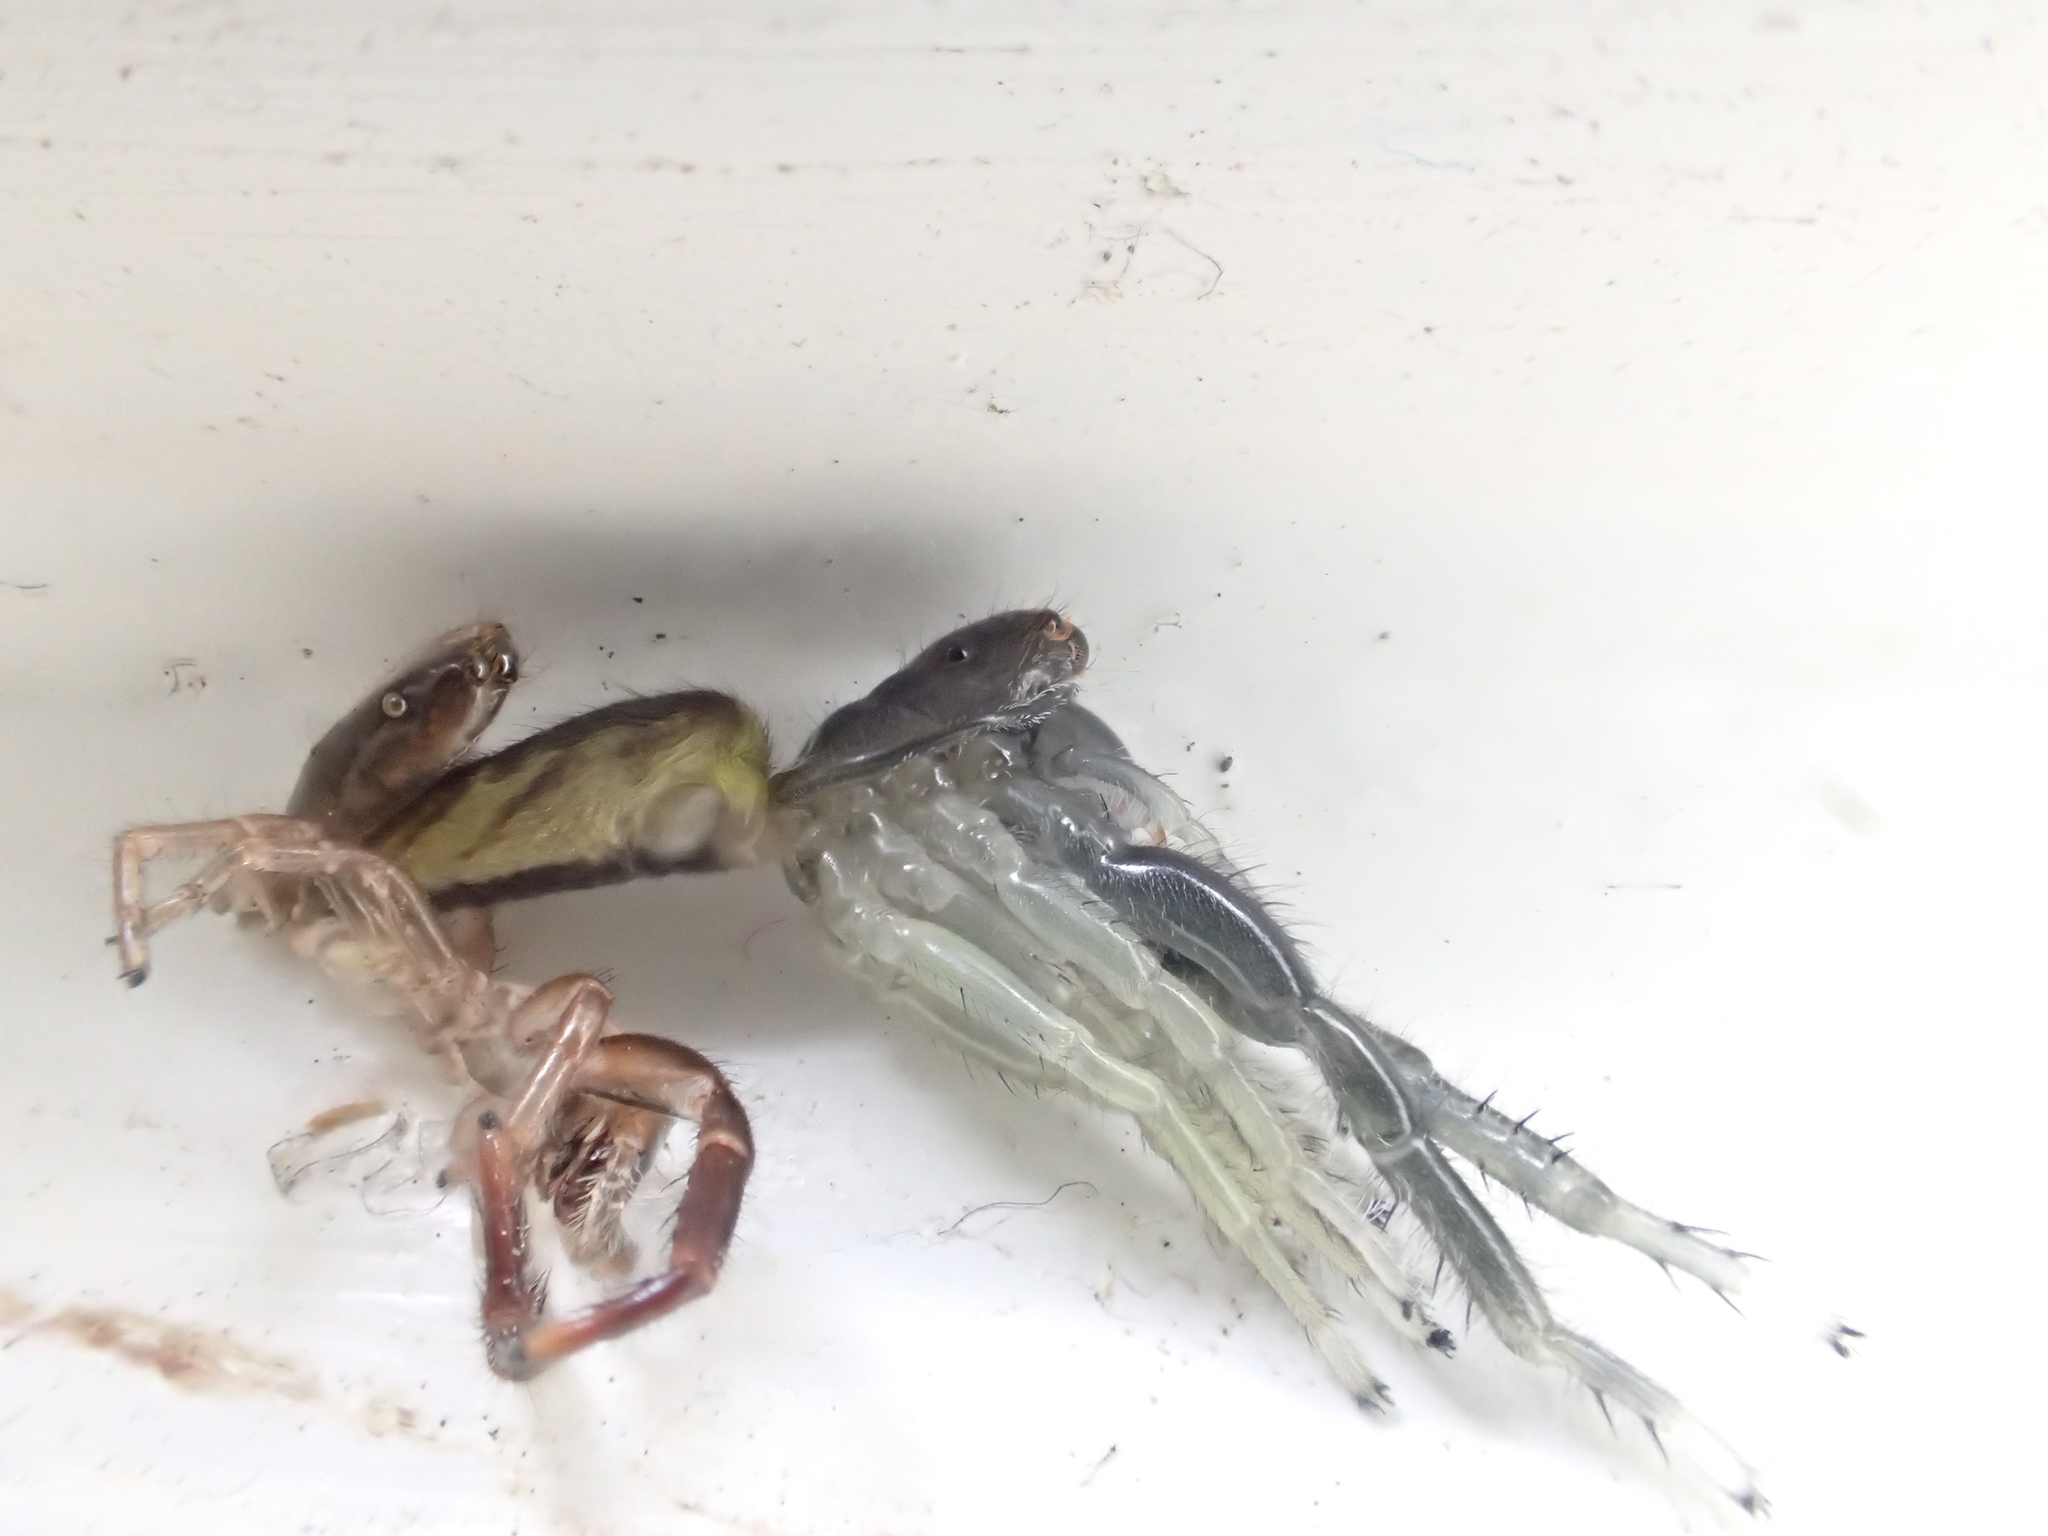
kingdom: Animalia
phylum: Arthropoda
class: Arachnida
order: Araneae
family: Salticidae
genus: Trite
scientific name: Trite planiceps
